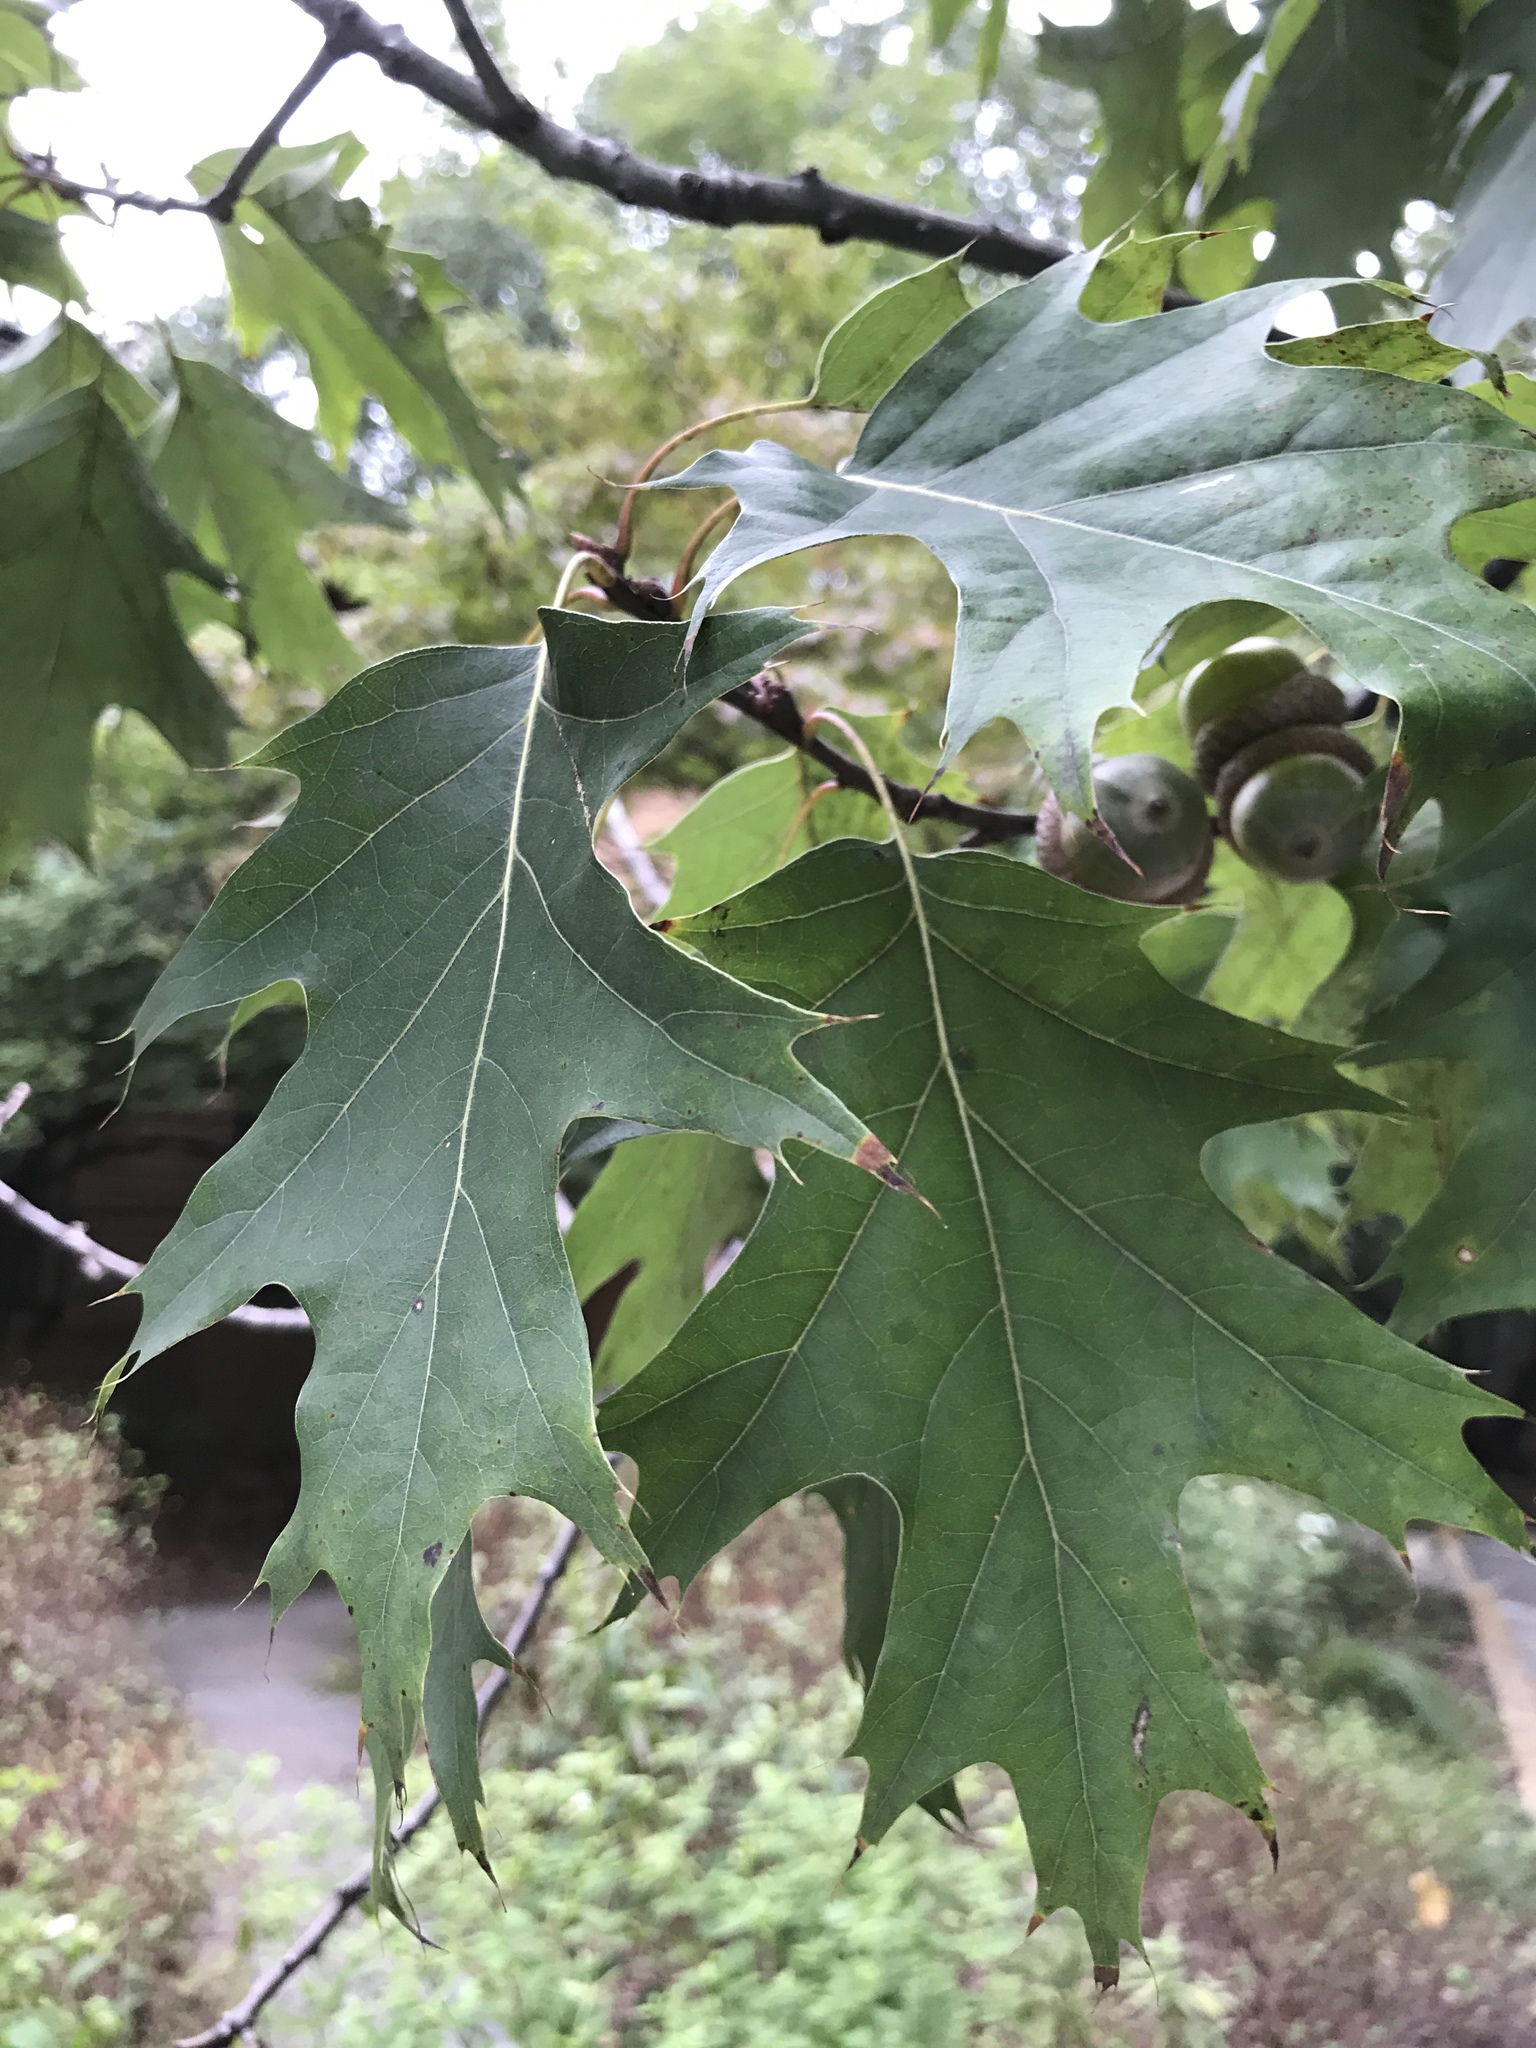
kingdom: Plantae
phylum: Tracheophyta
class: Magnoliopsida
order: Fagales
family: Fagaceae
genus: Quercus
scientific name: Quercus rubra
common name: Red oak
